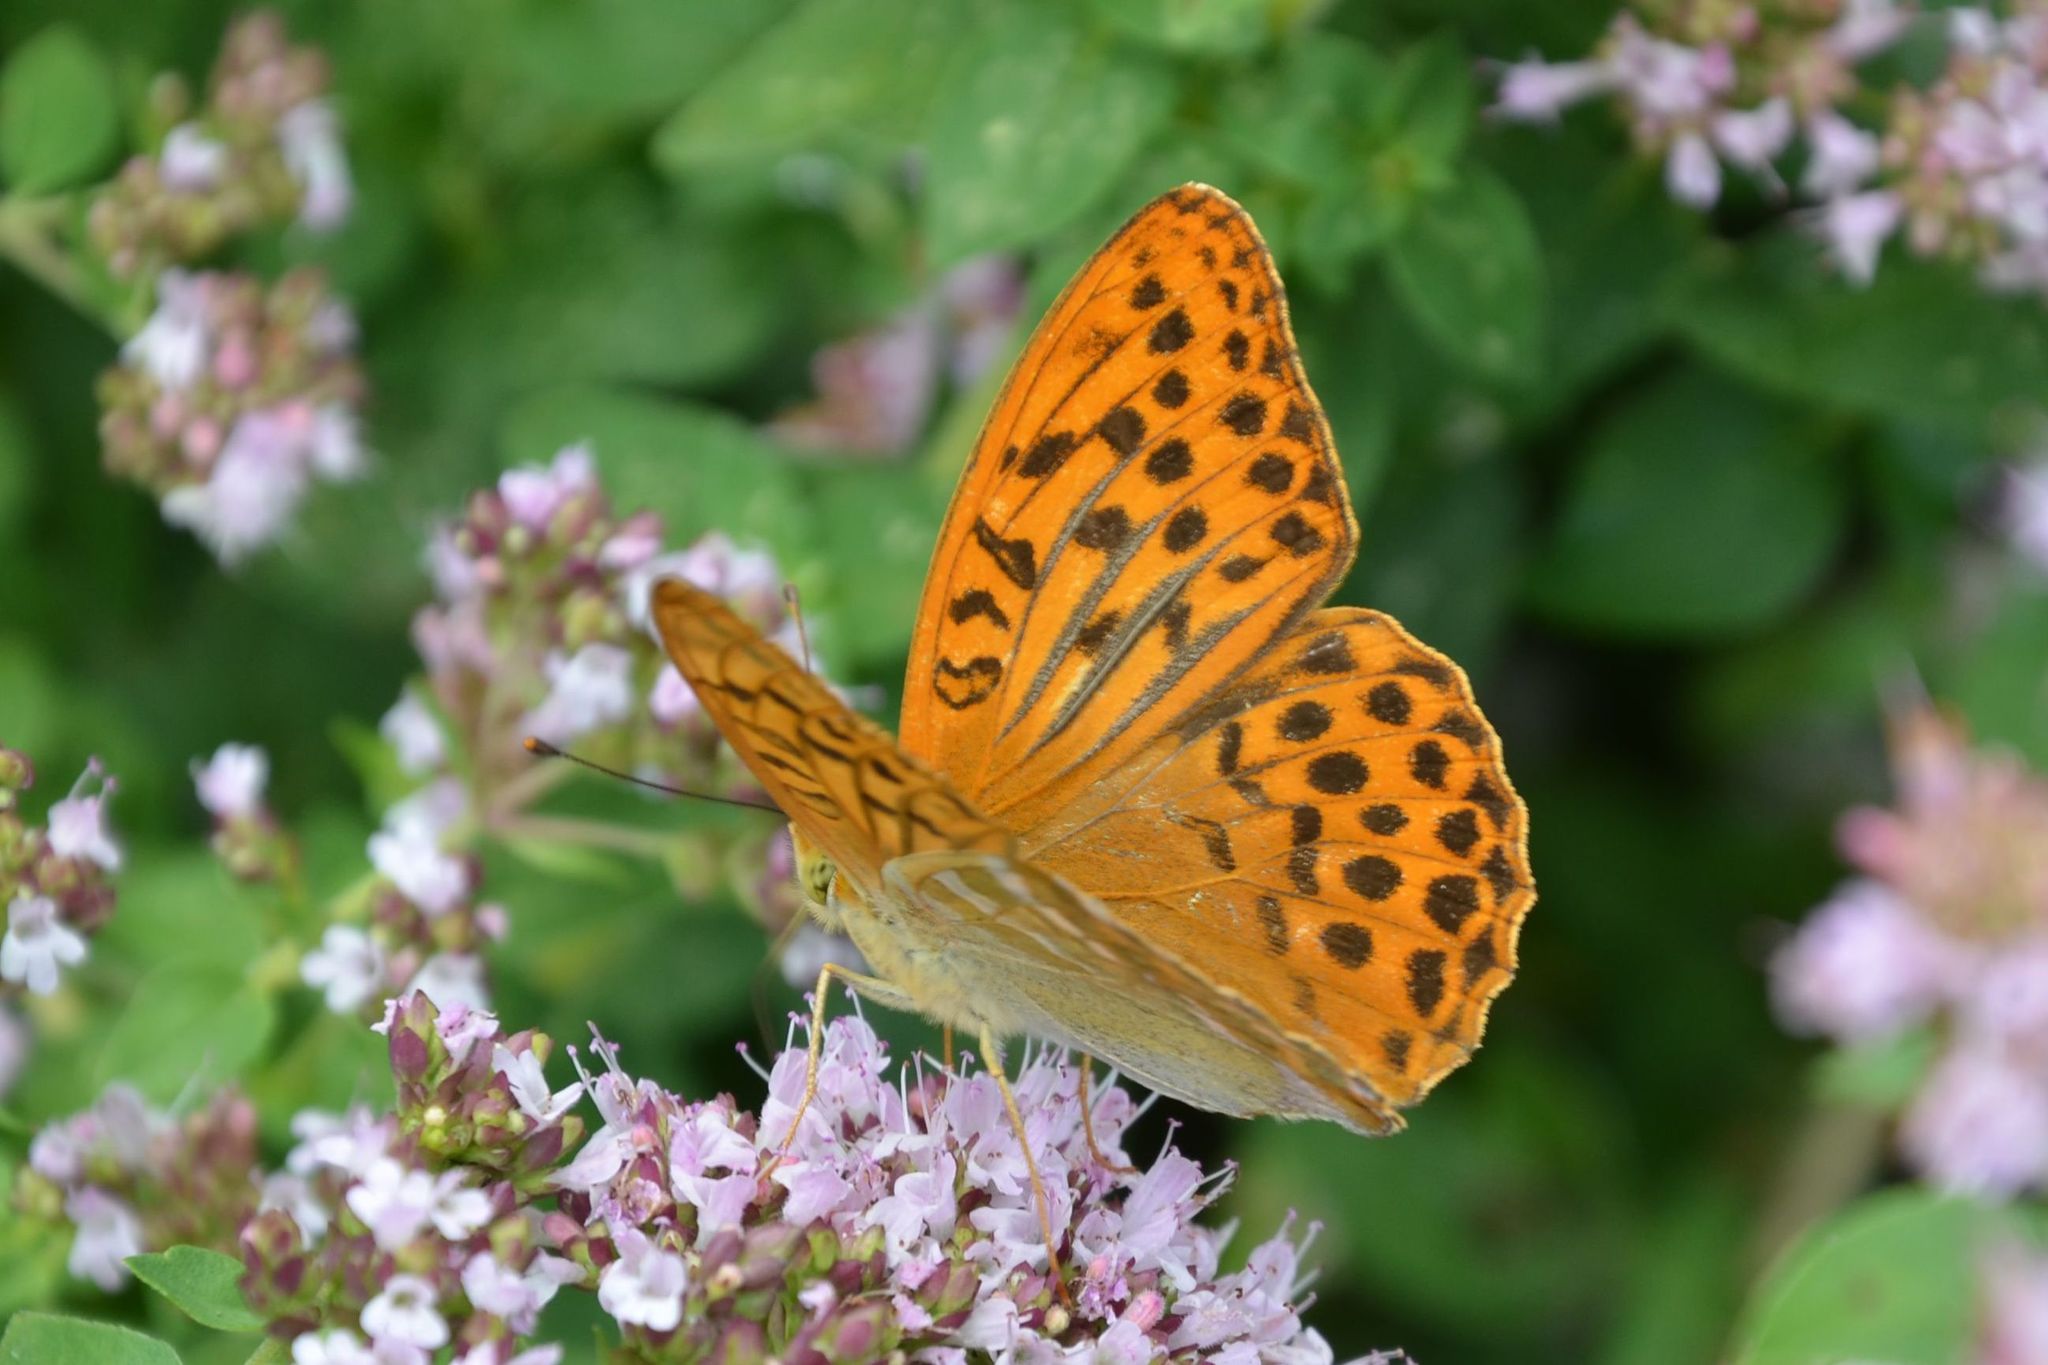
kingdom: Animalia
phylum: Arthropoda
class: Insecta
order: Lepidoptera
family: Nymphalidae
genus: Argynnis
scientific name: Argynnis paphia
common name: Silver-washed fritillary
